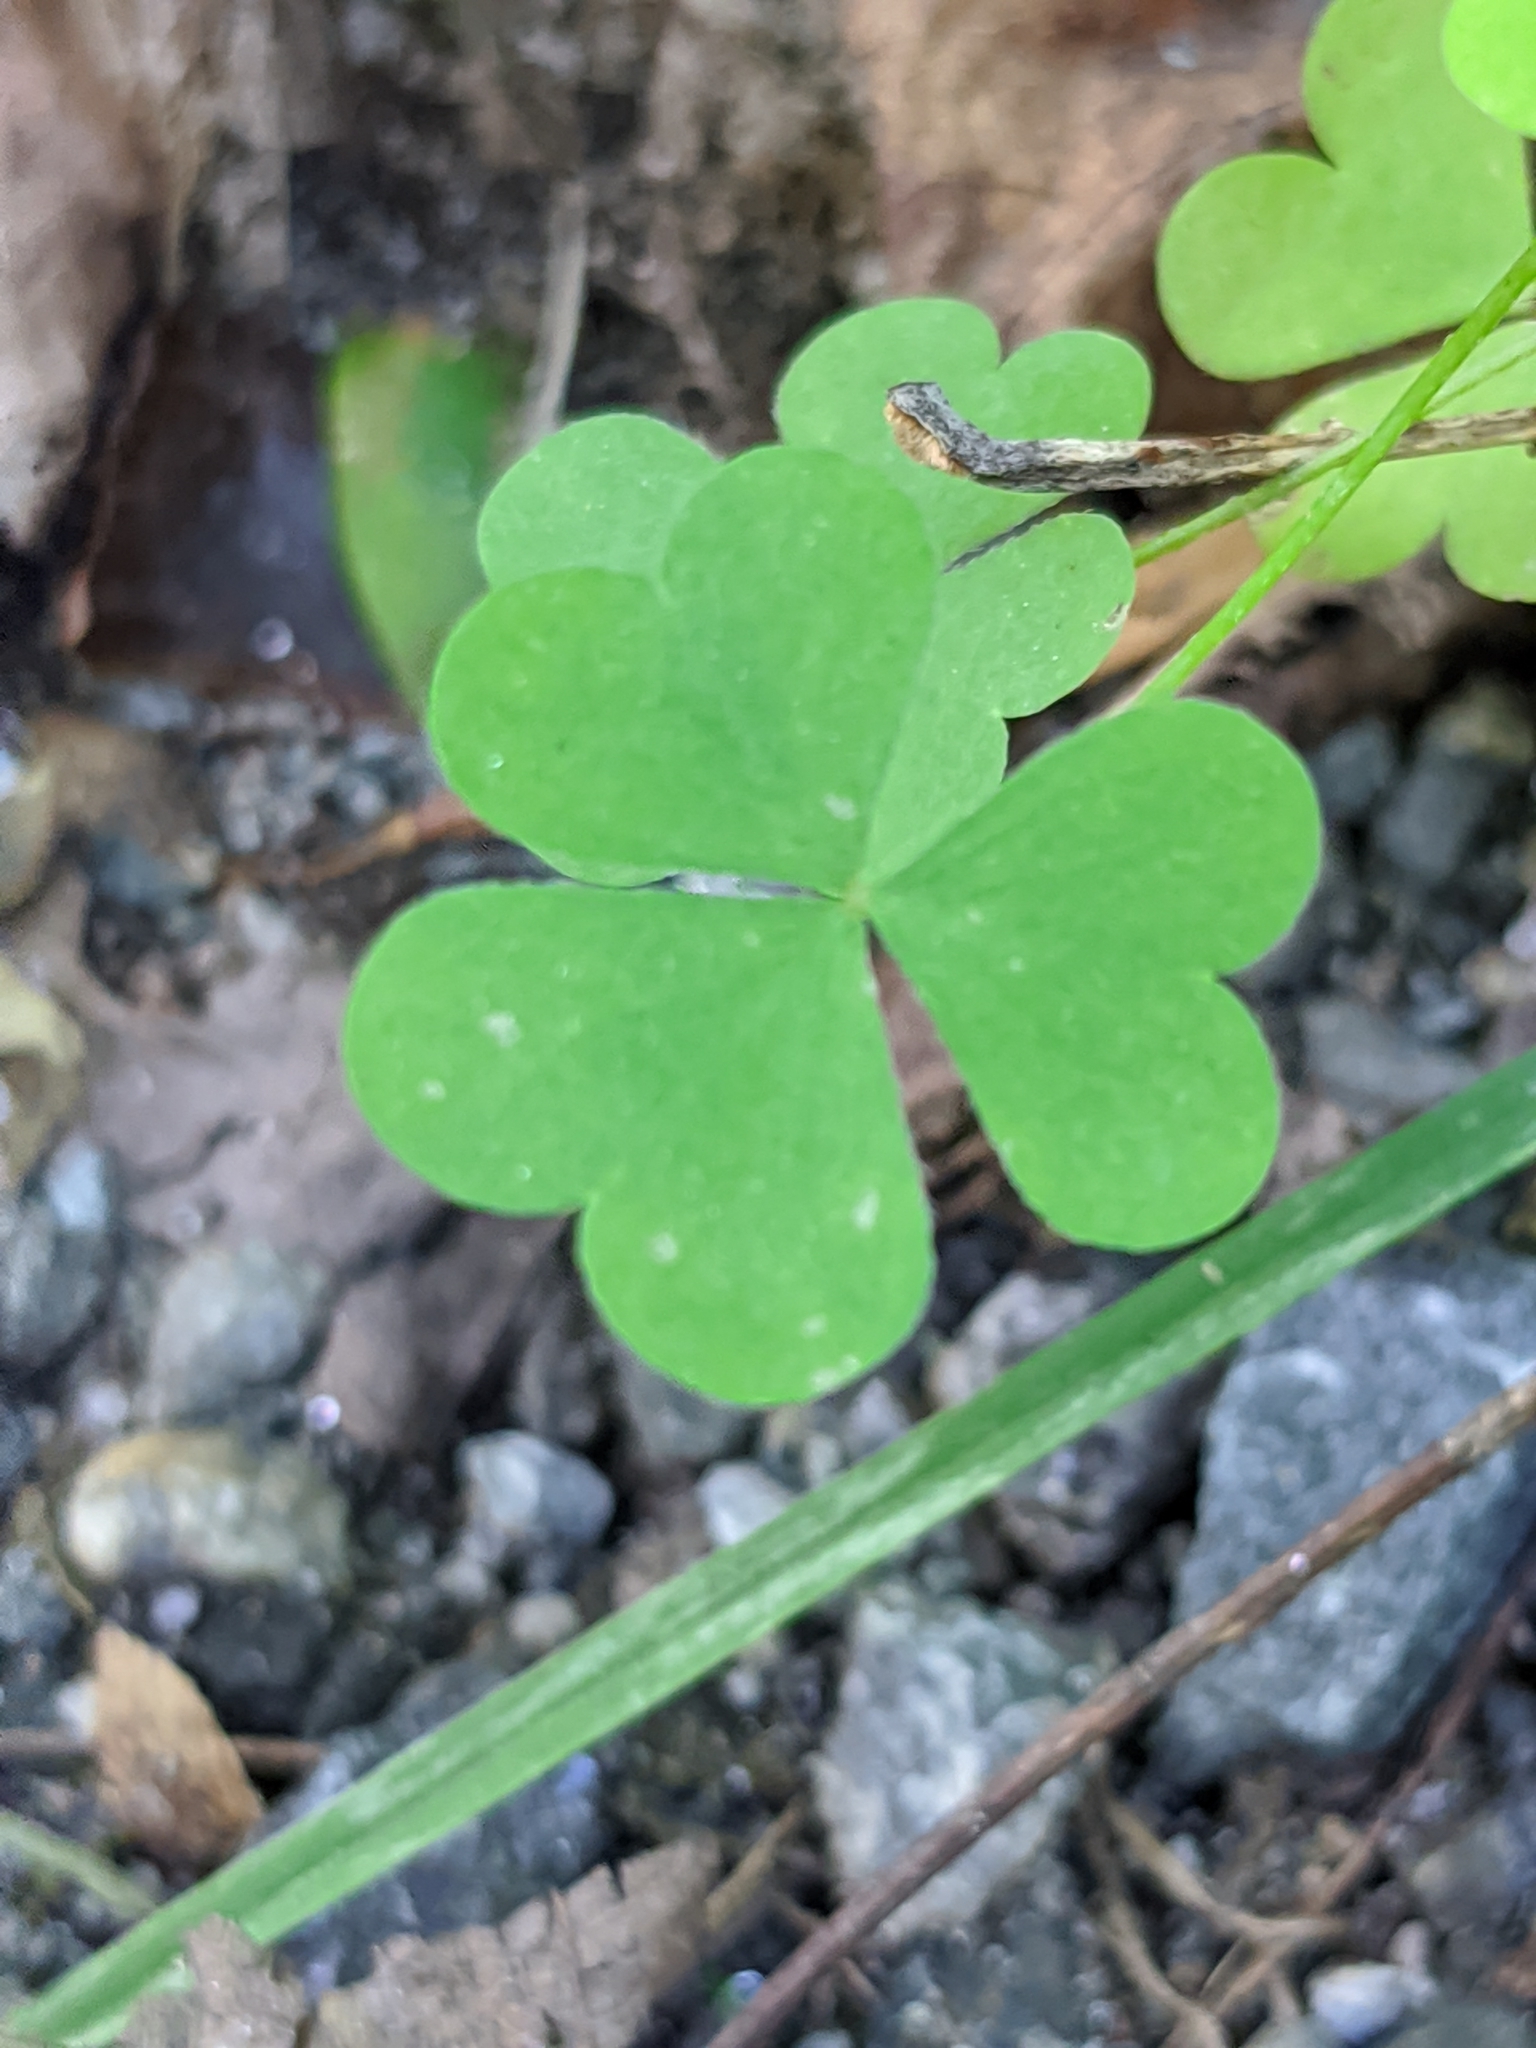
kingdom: Plantae
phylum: Tracheophyta
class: Magnoliopsida
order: Oxalidales
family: Oxalidaceae
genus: Oxalis
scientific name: Oxalis stricta
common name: Upright yellow-sorrel
